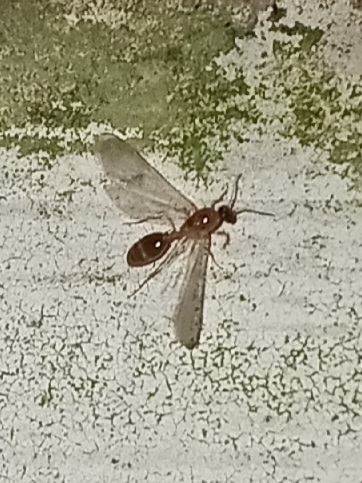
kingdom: Animalia
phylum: Arthropoda
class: Insecta
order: Hymenoptera
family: Formicidae
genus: Pheidole
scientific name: Pheidole bicarinata
